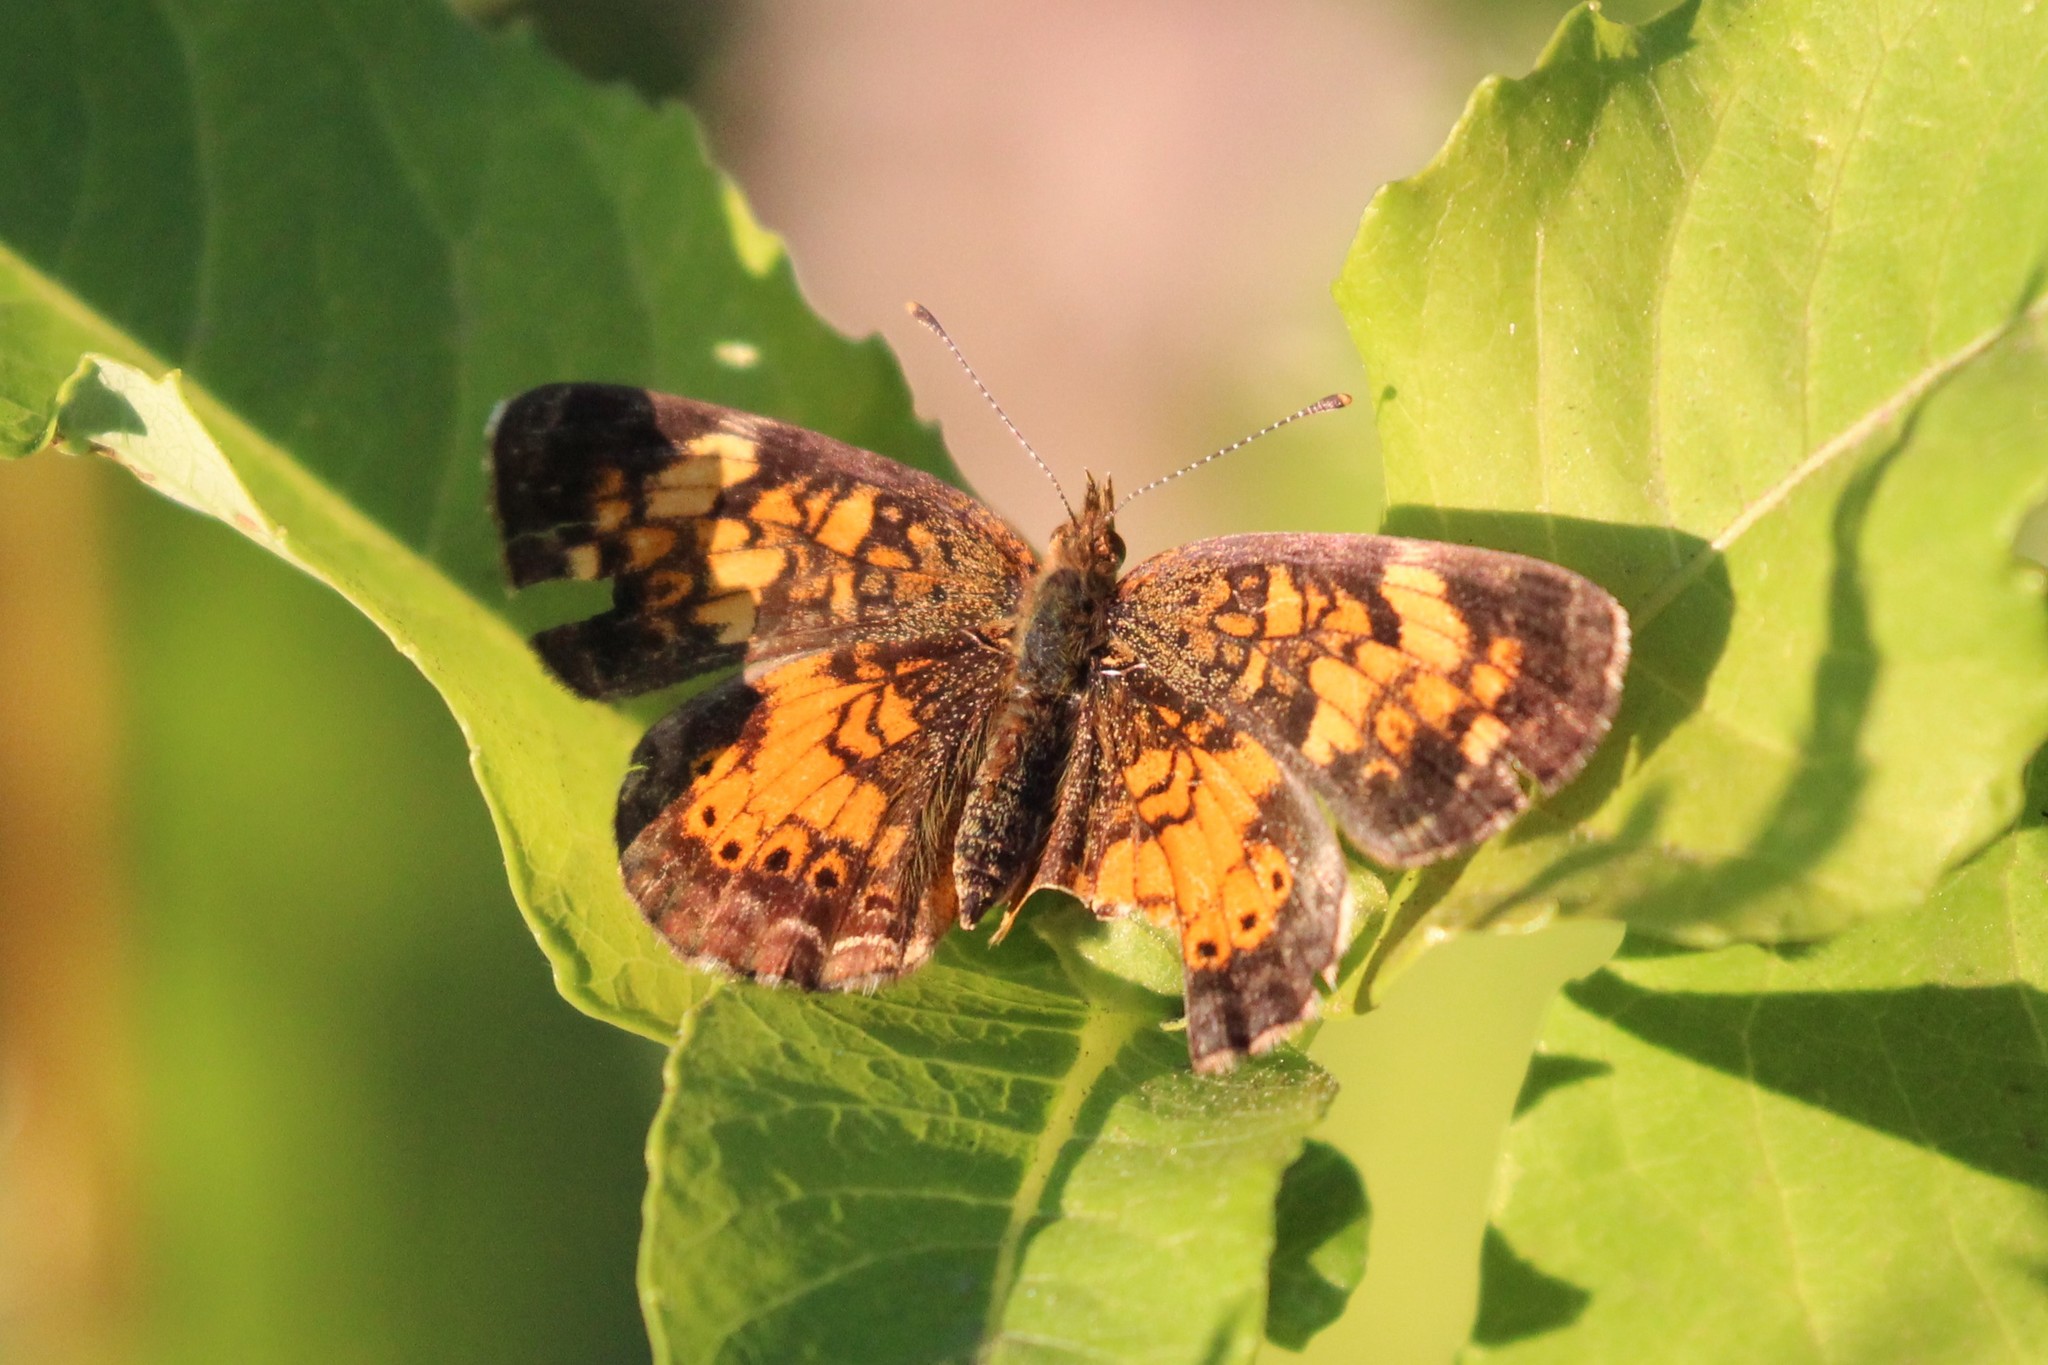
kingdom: Animalia
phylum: Arthropoda
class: Insecta
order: Lepidoptera
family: Nymphalidae
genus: Phyciodes
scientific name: Phyciodes tharos
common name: Pearl crescent
